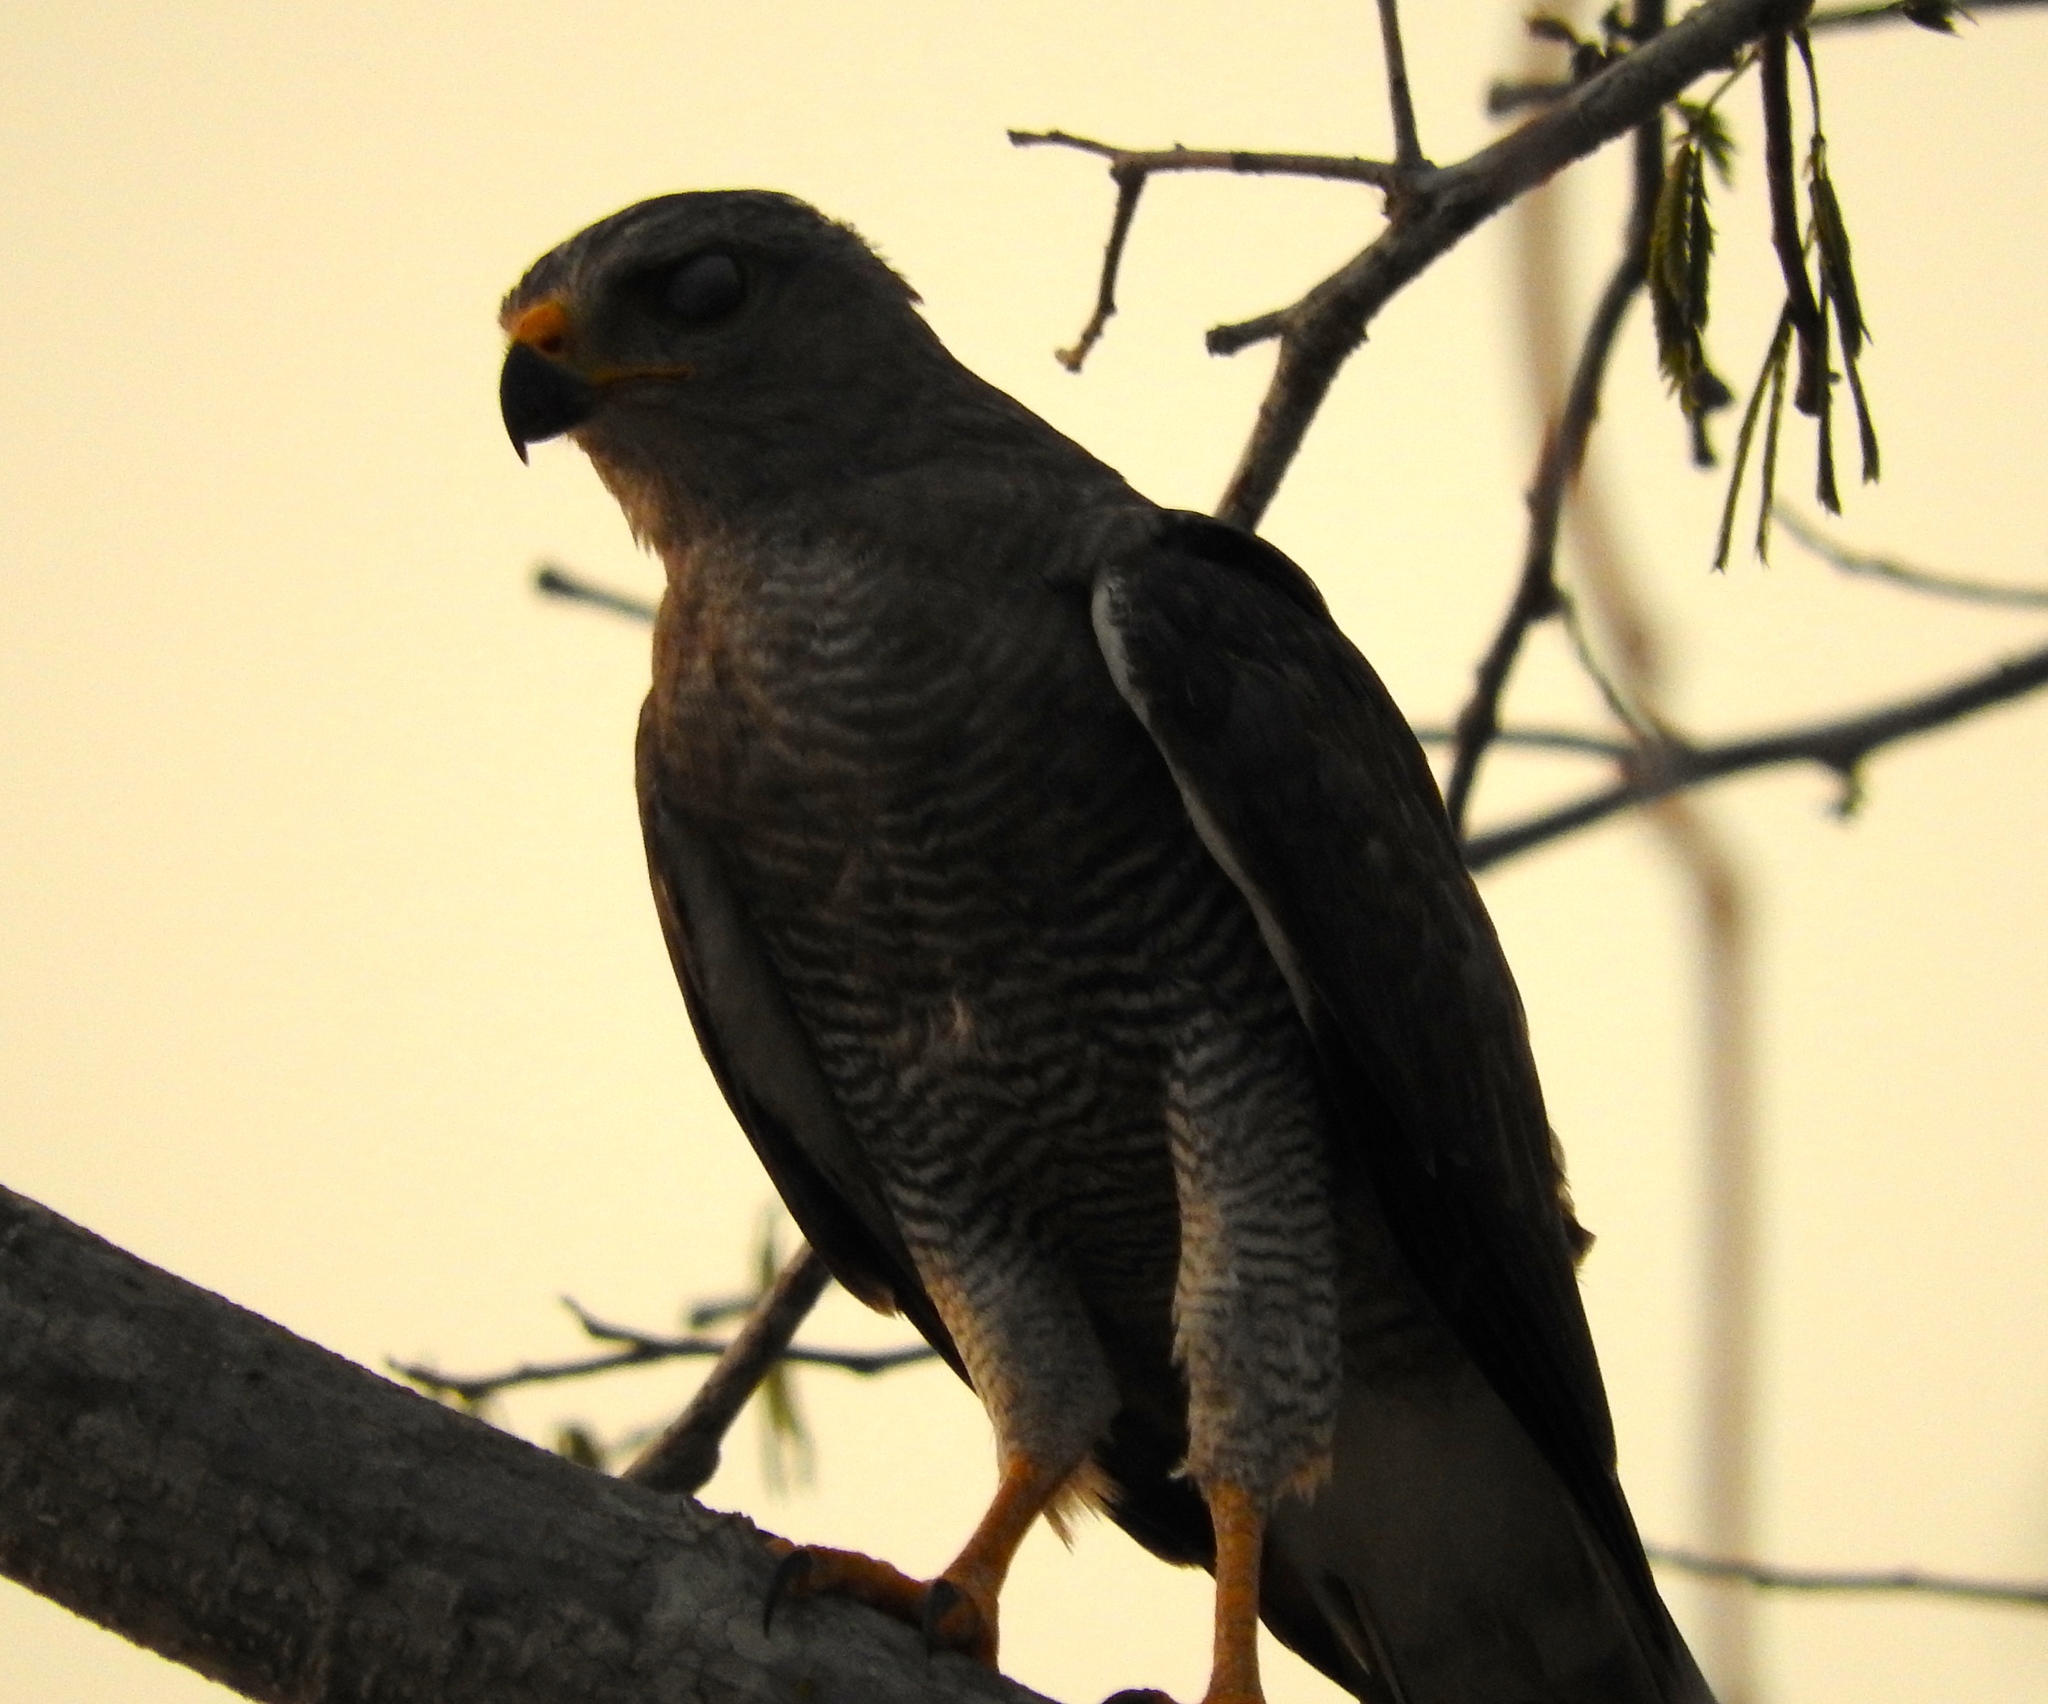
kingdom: Animalia
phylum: Chordata
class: Aves
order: Accipitriformes
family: Accipitridae
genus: Buteo
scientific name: Buteo nitidus
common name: Grey-lined hawk
